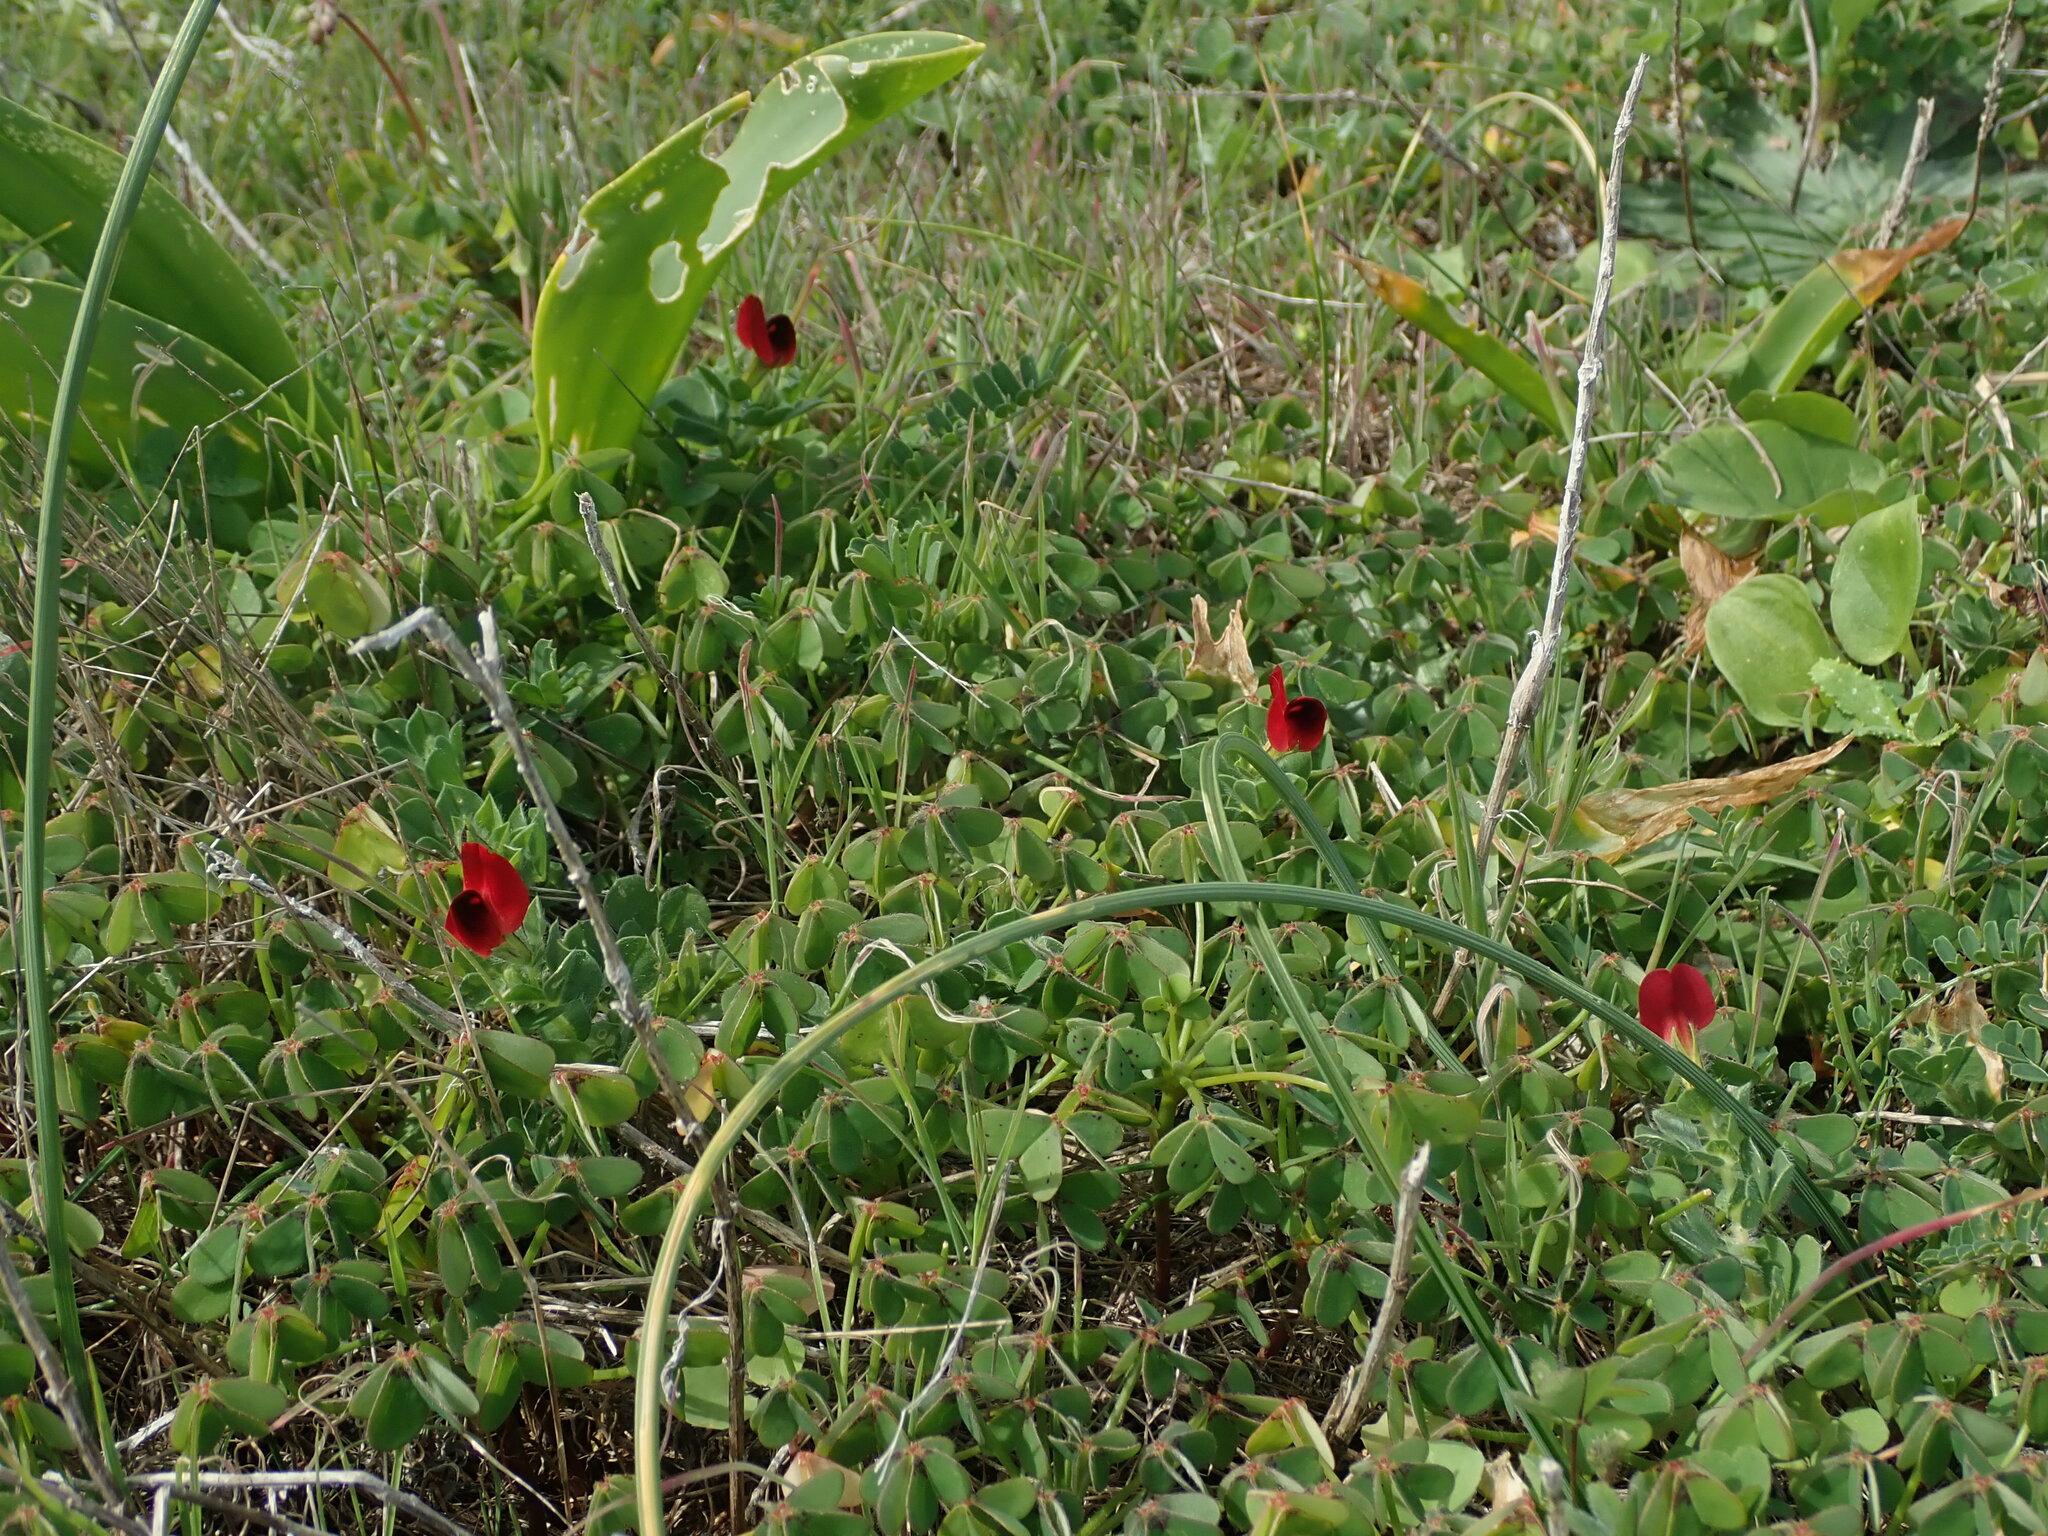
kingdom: Plantae
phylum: Tracheophyta
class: Magnoliopsida
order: Fabales
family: Fabaceae
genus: Lotus
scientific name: Lotus tetragonolobus
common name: Asparagus-pea
